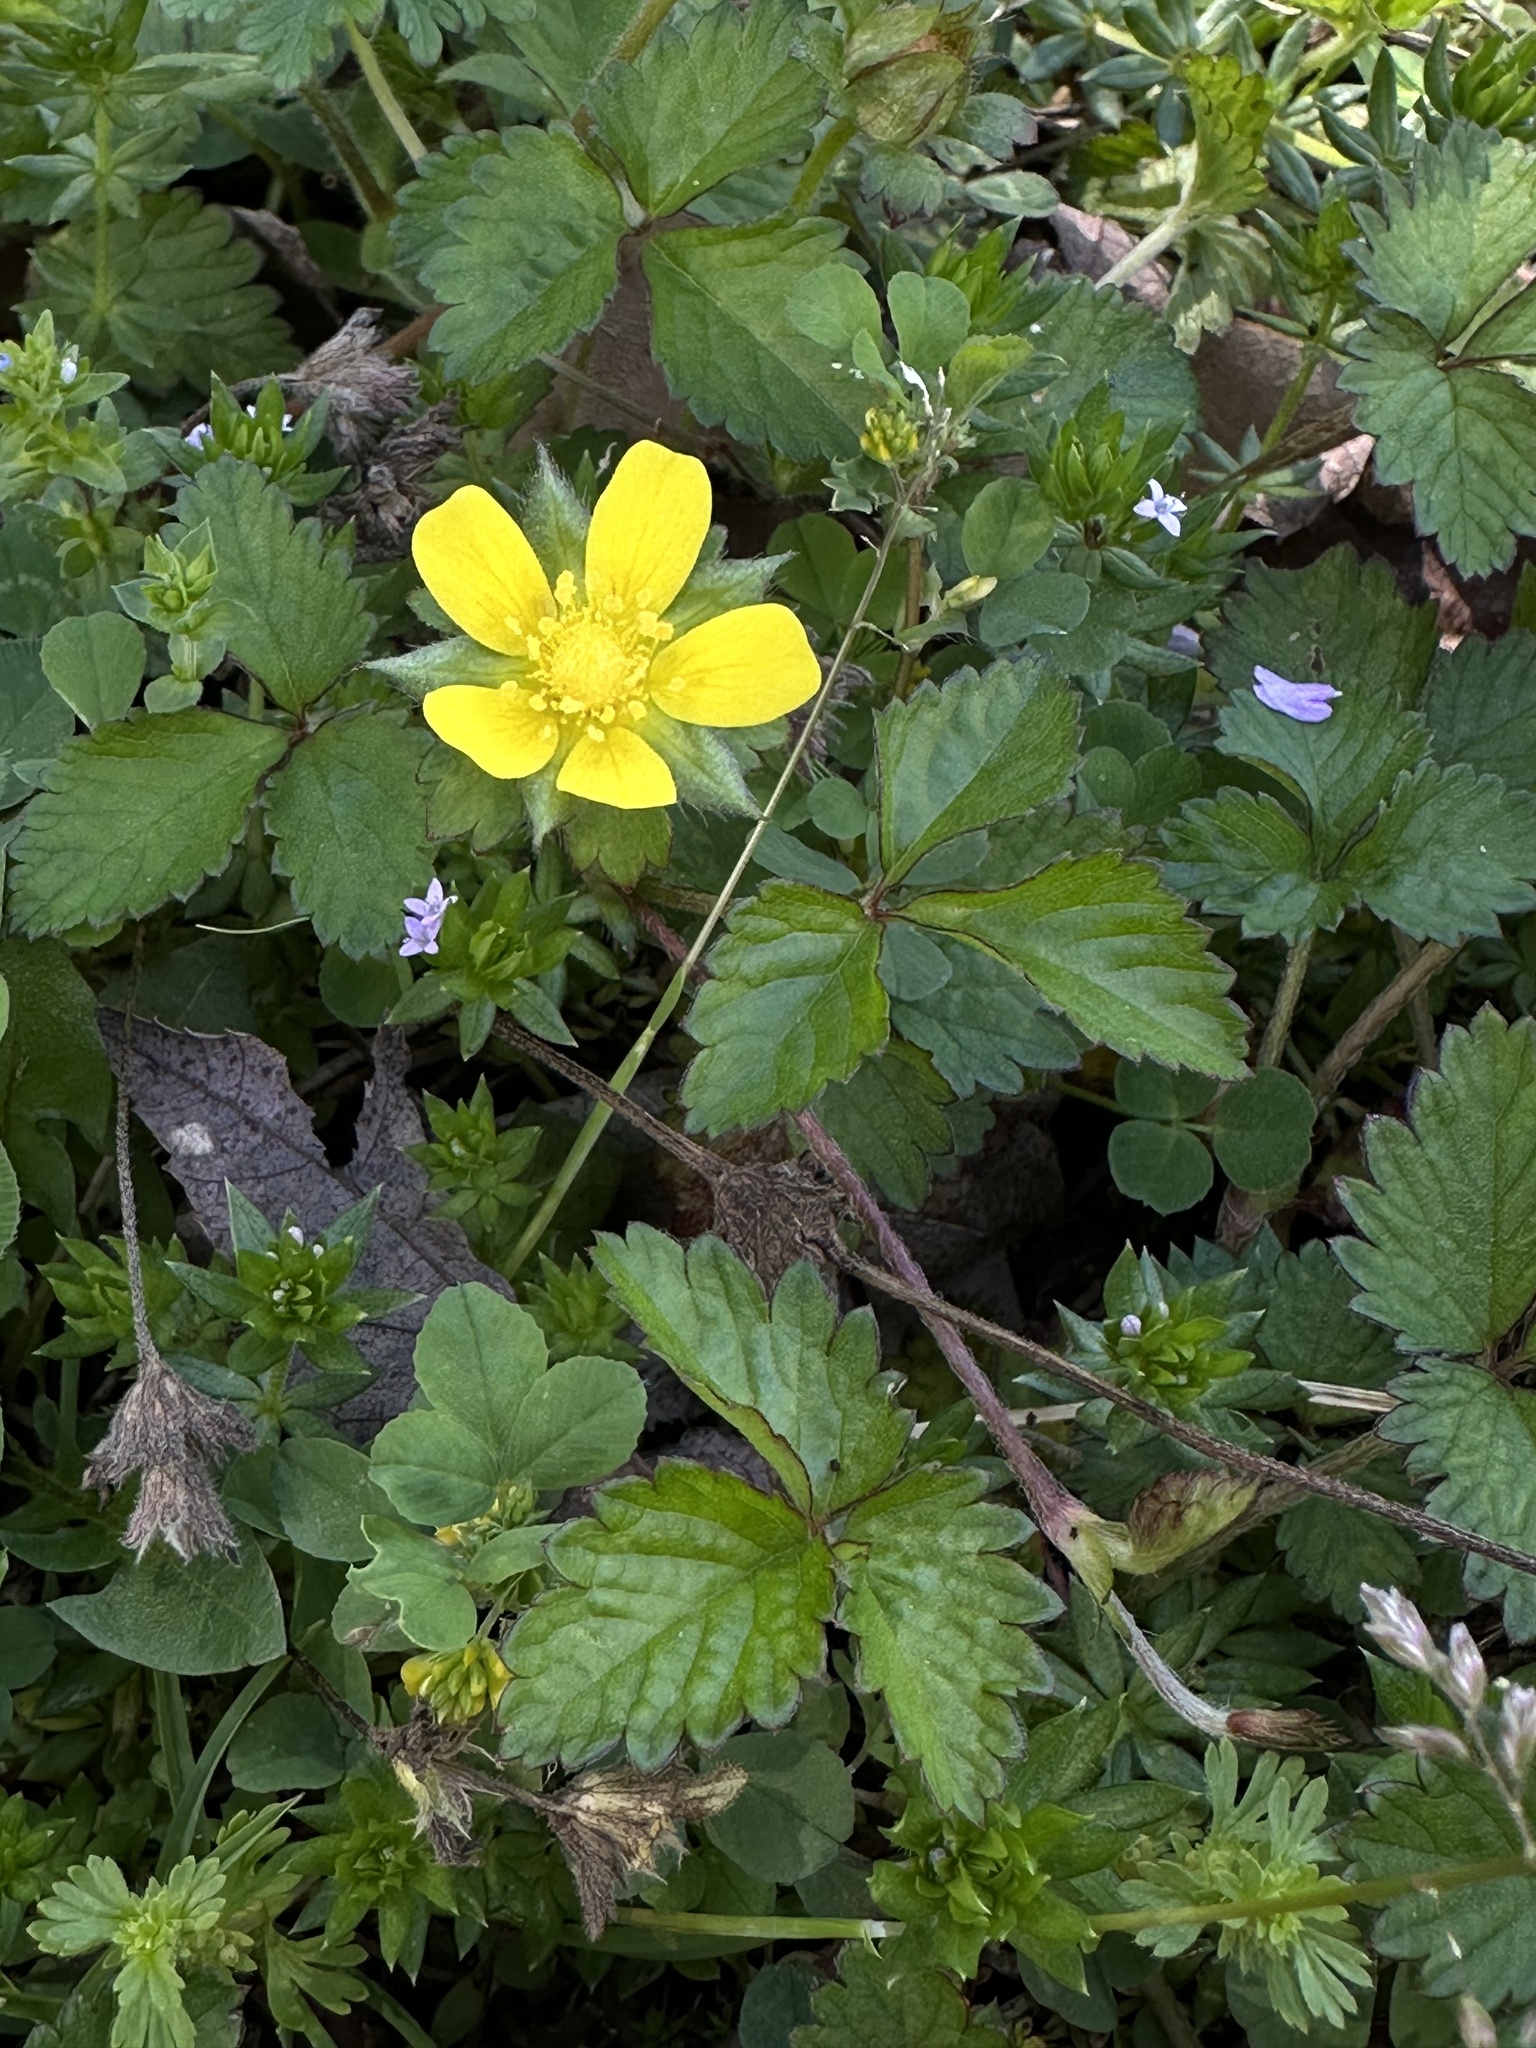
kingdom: Plantae
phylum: Tracheophyta
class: Magnoliopsida
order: Rosales
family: Rosaceae
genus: Potentilla
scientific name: Potentilla indica
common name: Yellow-flowered strawberry
